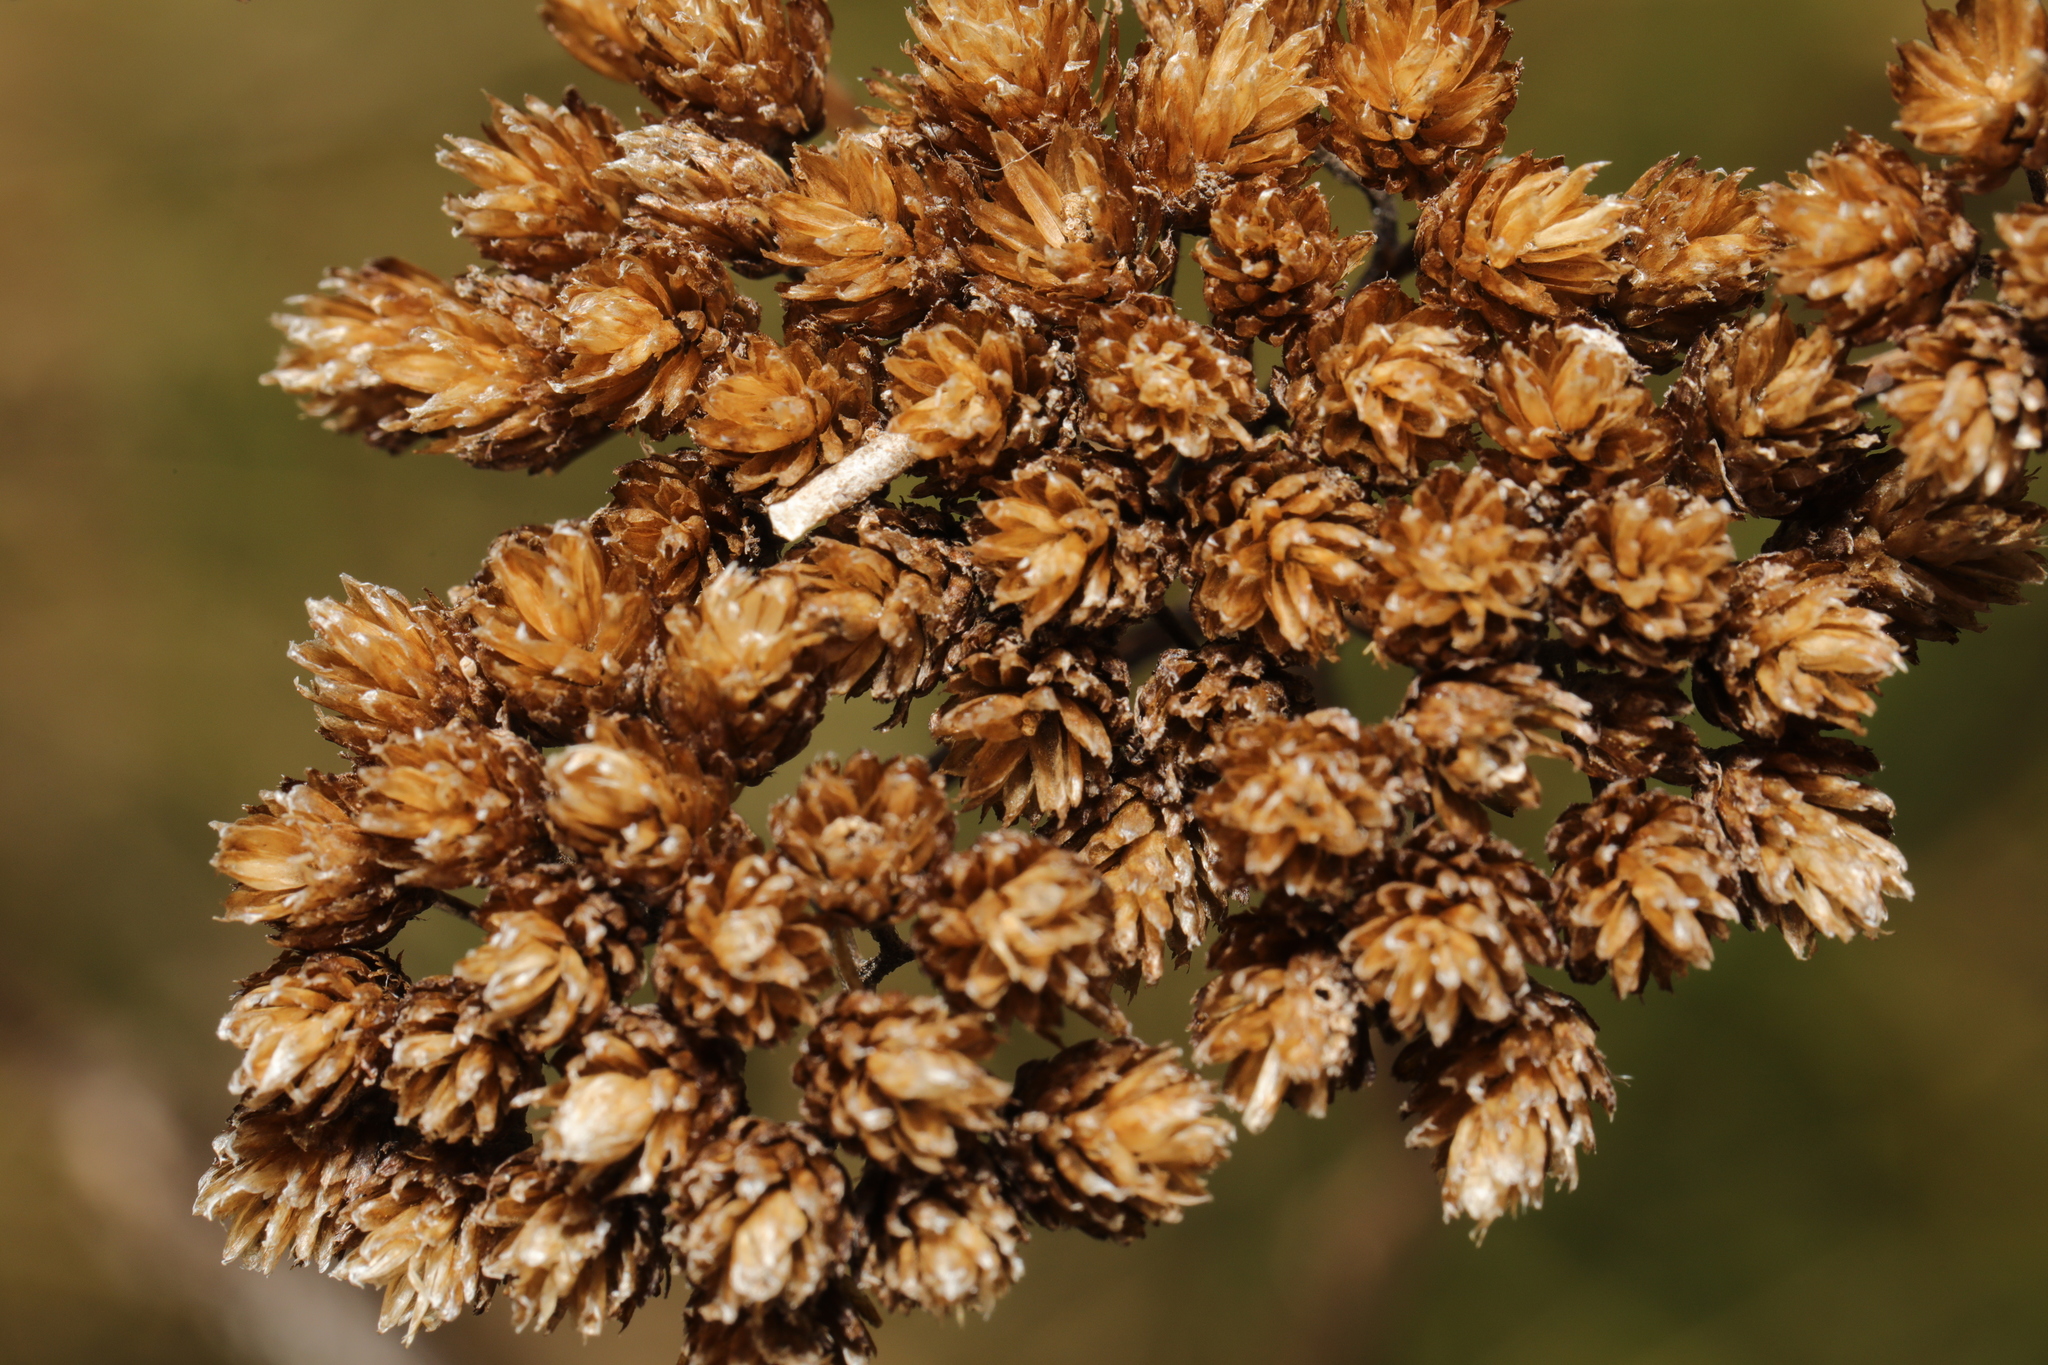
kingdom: Animalia
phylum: Arthropoda
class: Insecta
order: Lepidoptera
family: Coleophoridae
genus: Coleophora
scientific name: Coleophora argentula
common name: Yarrow case-bearer
